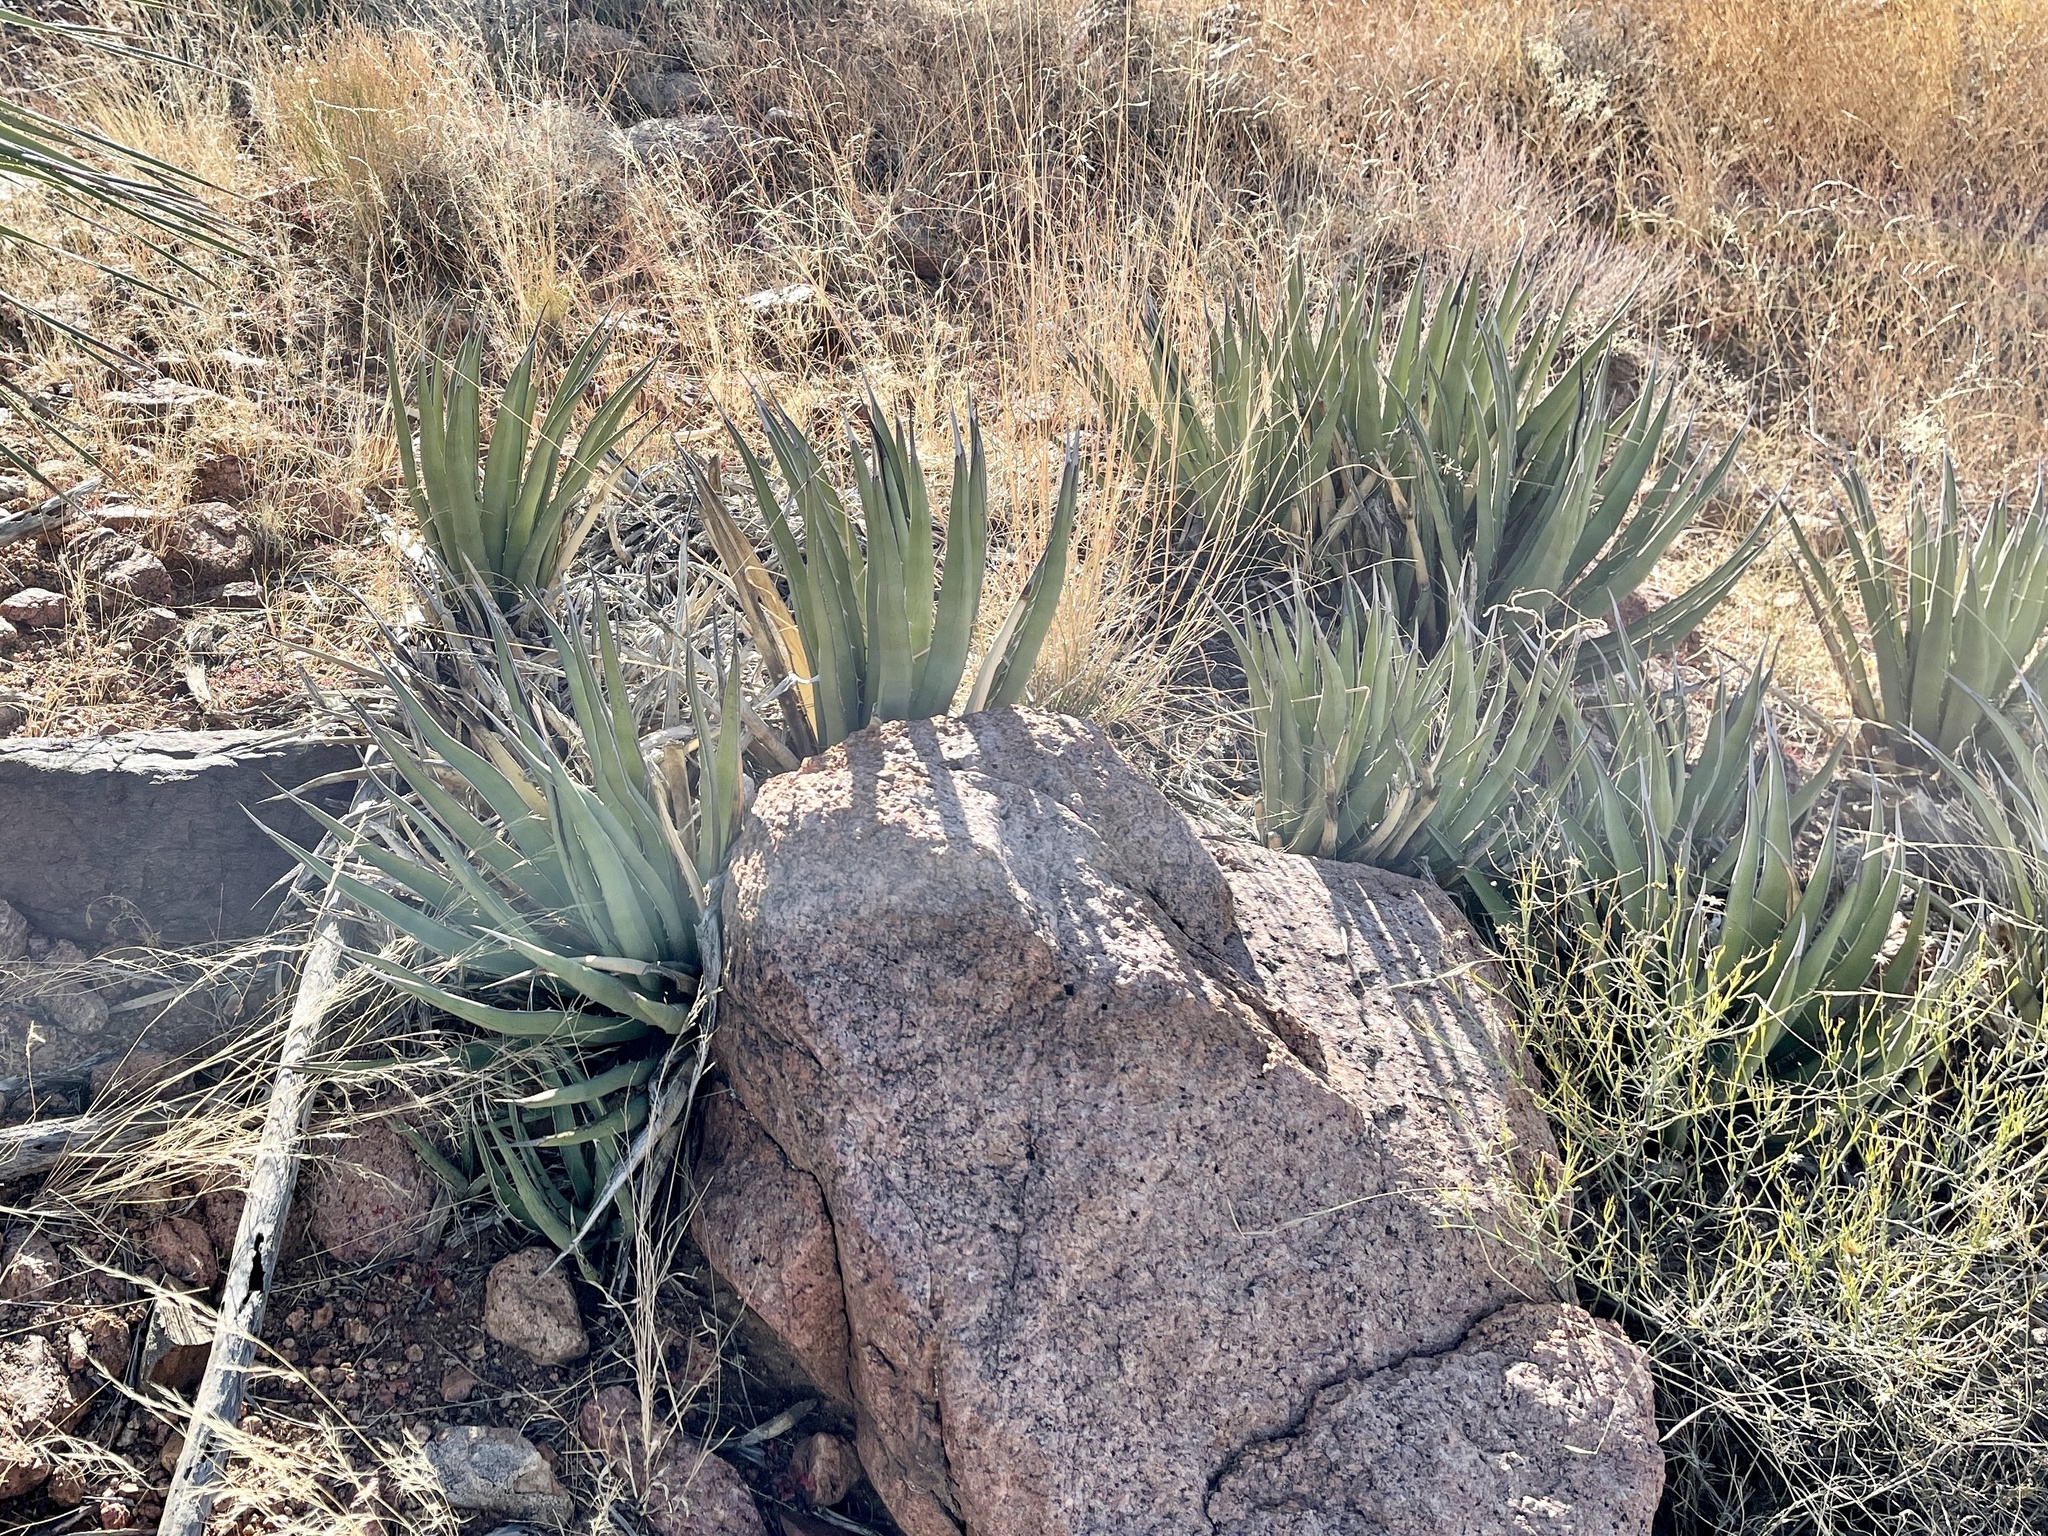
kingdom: Plantae
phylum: Tracheophyta
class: Liliopsida
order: Asparagales
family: Asparagaceae
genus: Agave
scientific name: Agave lechuguilla
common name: Lecheguilla agave
